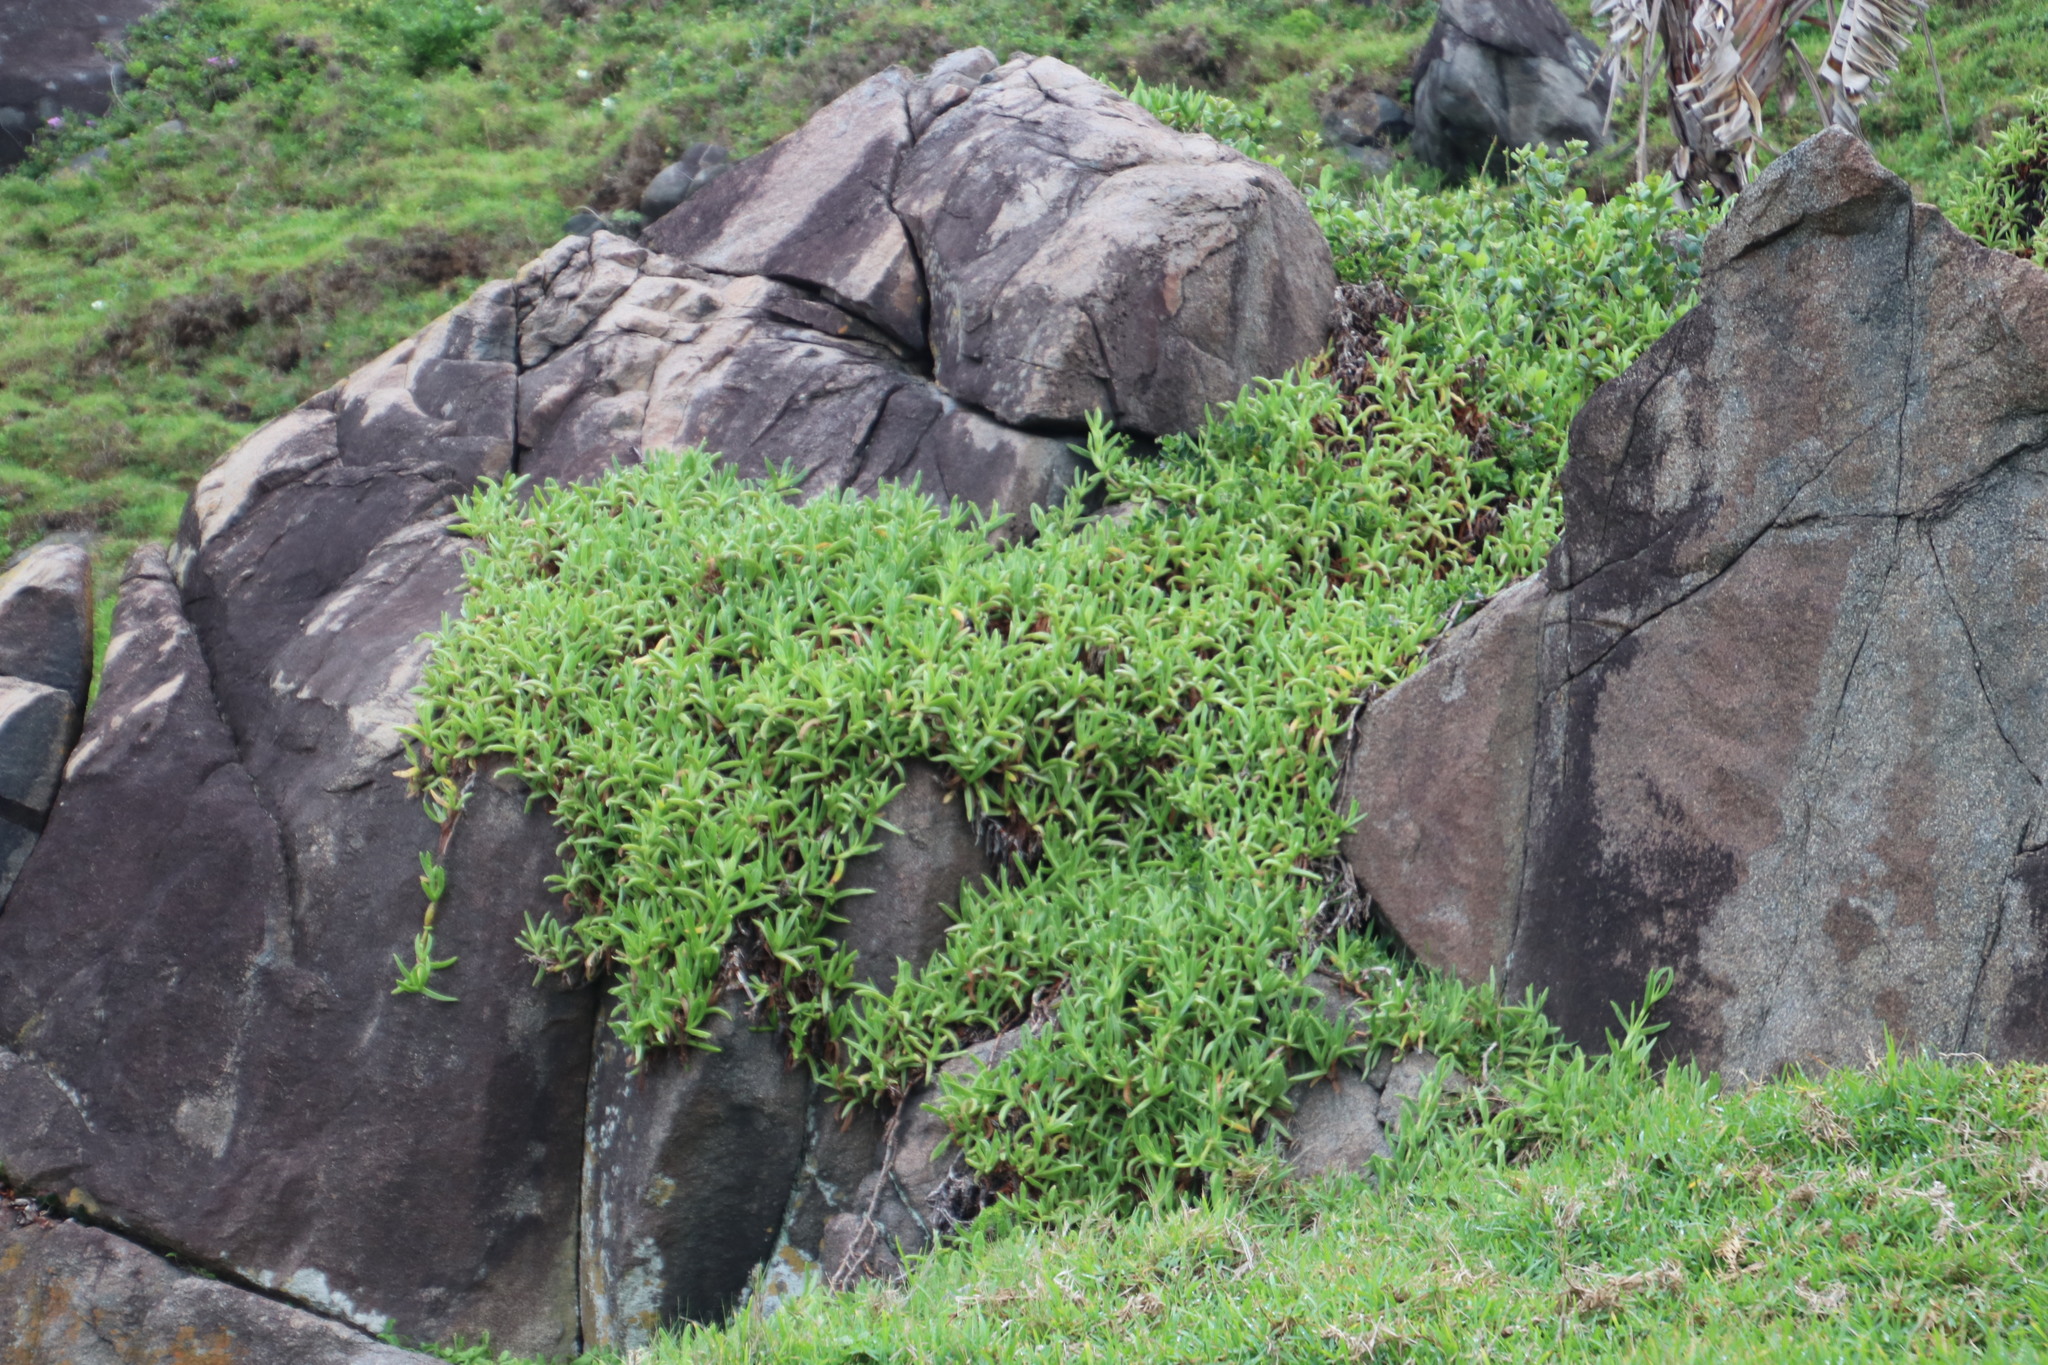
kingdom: Plantae
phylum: Tracheophyta
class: Magnoliopsida
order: Caryophyllales
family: Aizoaceae
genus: Carpobrotus
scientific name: Carpobrotus dimidiatus
